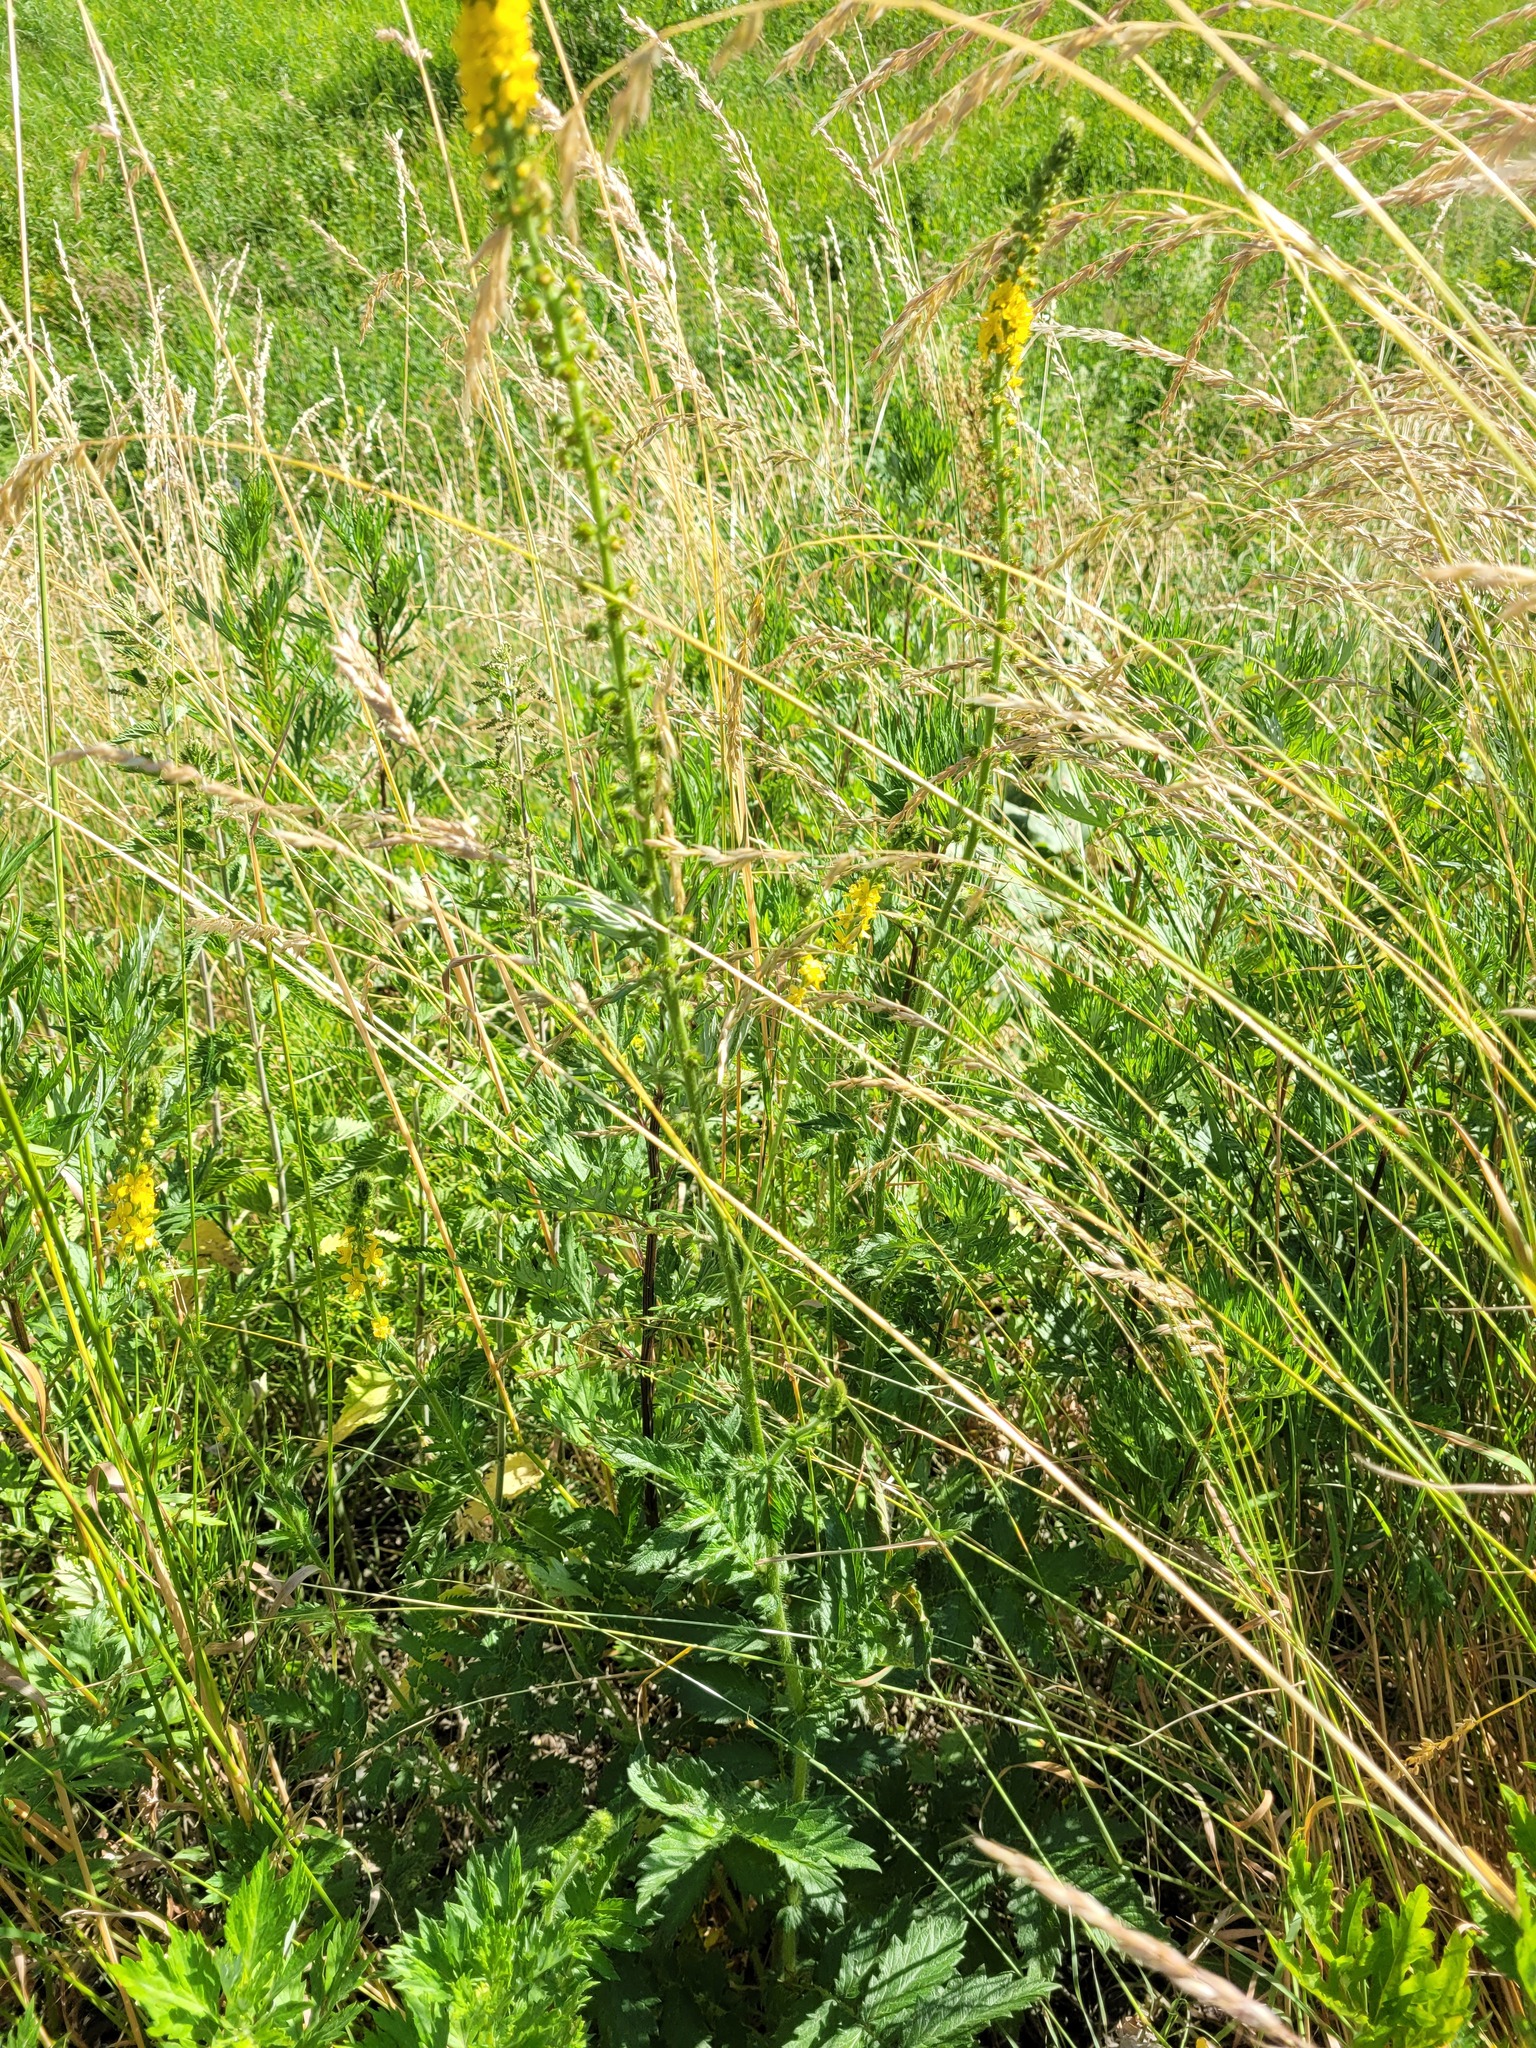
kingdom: Plantae
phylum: Tracheophyta
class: Magnoliopsida
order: Rosales
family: Rosaceae
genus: Agrimonia
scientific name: Agrimonia eupatoria
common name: Agrimony
